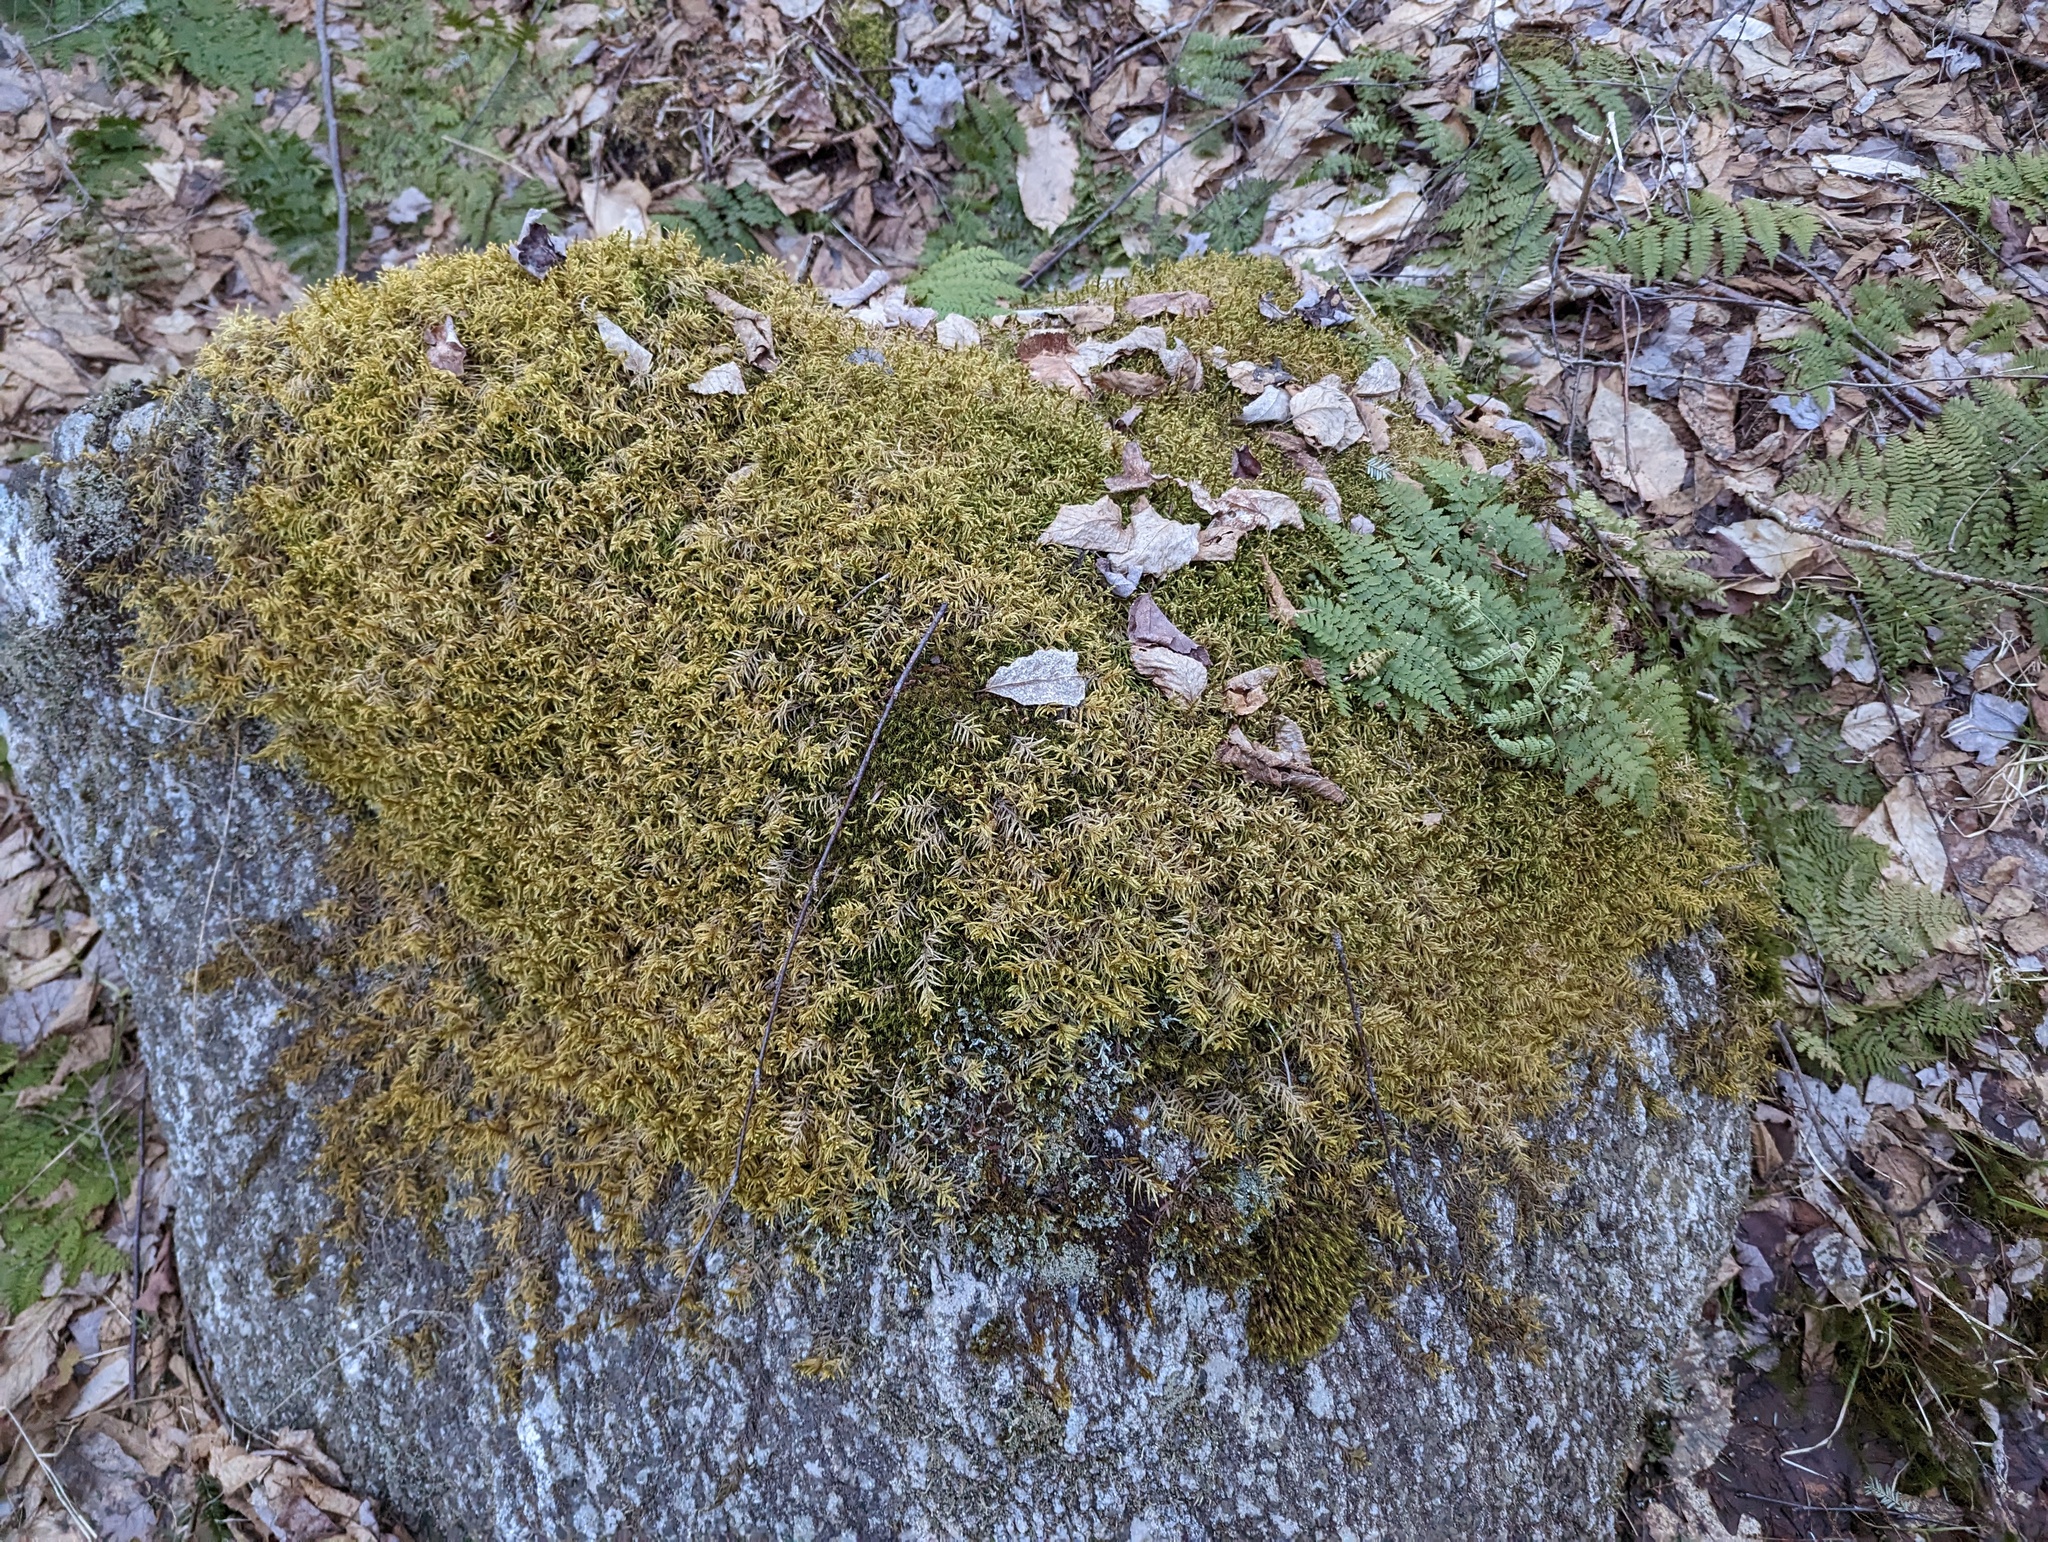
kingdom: Plantae
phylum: Bryophyta
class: Bryopsida
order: Hypnales
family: Hylocomiaceae
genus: Pleurozium
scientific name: Pleurozium schreberi
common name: Red-stemmed feather moss
